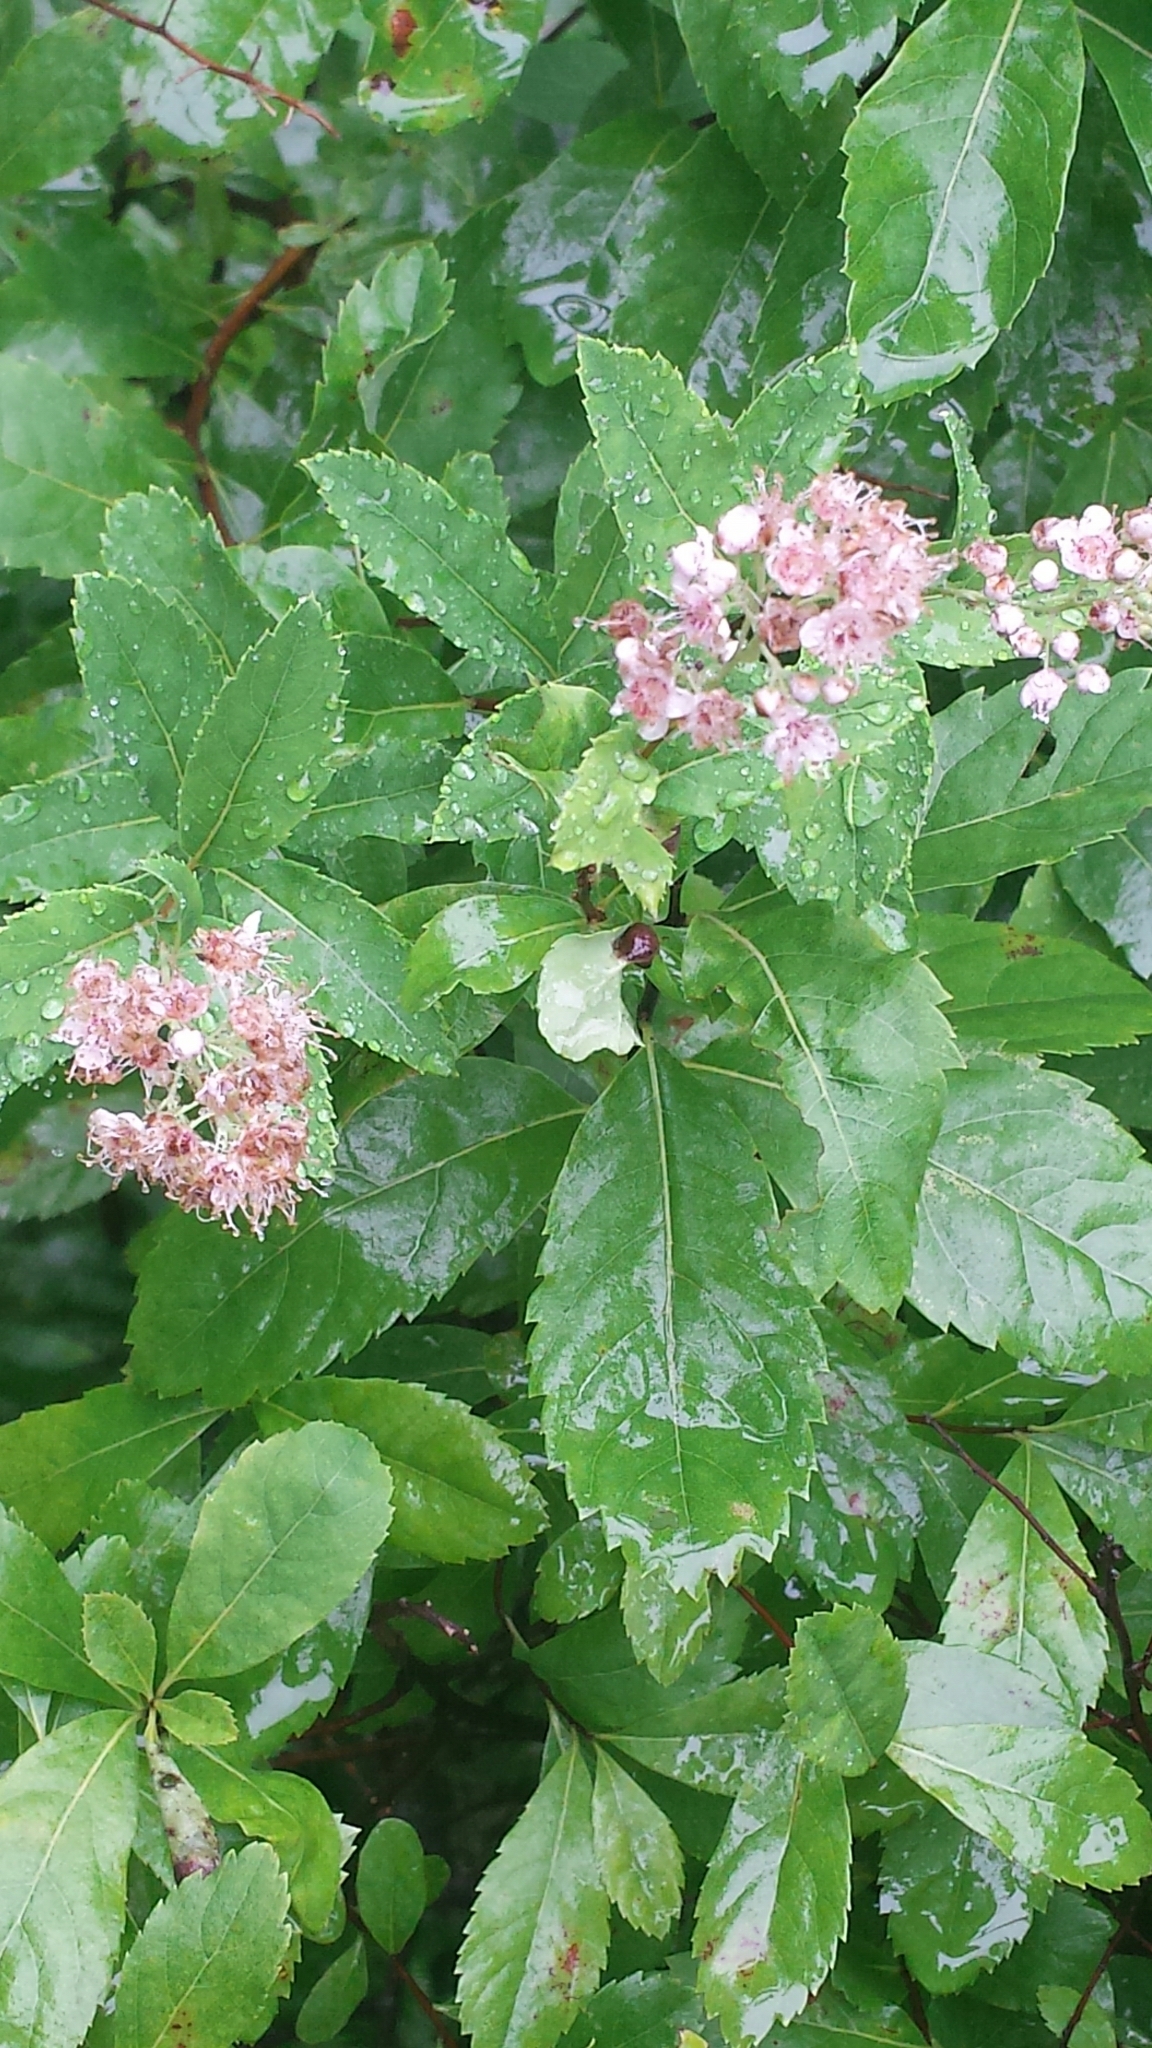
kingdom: Plantae
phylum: Tracheophyta
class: Magnoliopsida
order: Rosales
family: Rosaceae
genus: Spiraea
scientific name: Spiraea alba
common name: Pale bridewort
